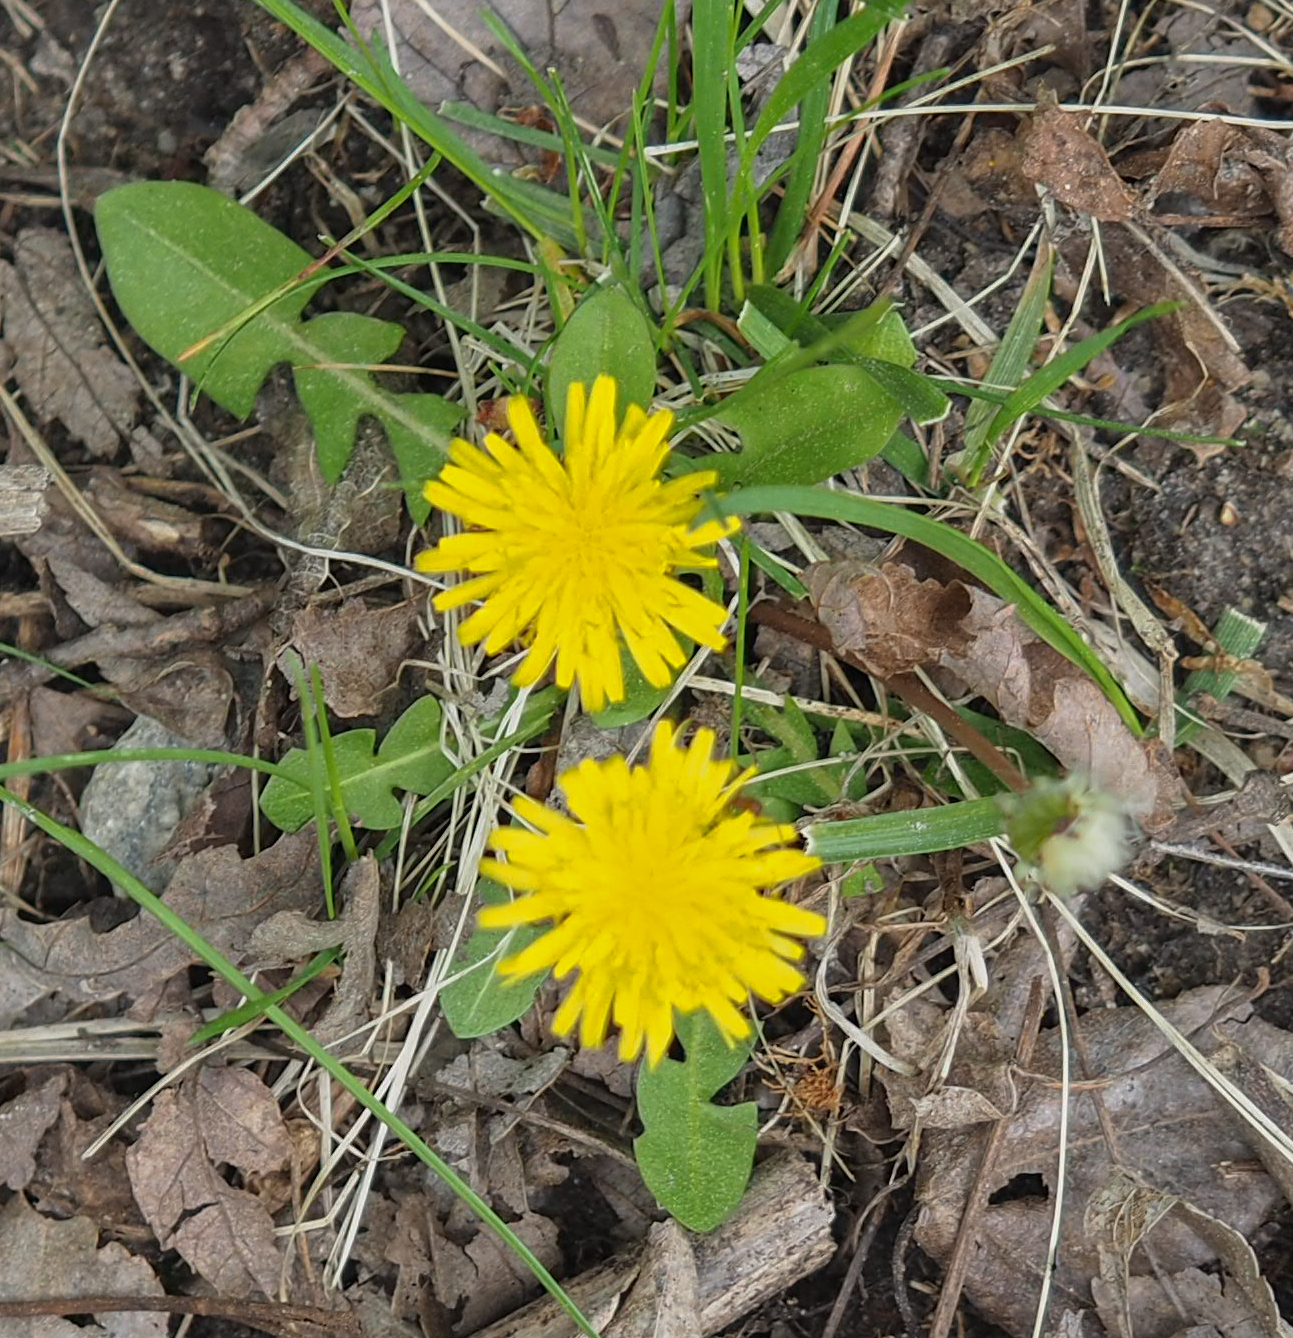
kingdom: Plantae
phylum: Tracheophyta
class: Magnoliopsida
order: Asterales
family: Asteraceae
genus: Taraxacum
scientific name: Taraxacum officinale
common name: Common dandelion
